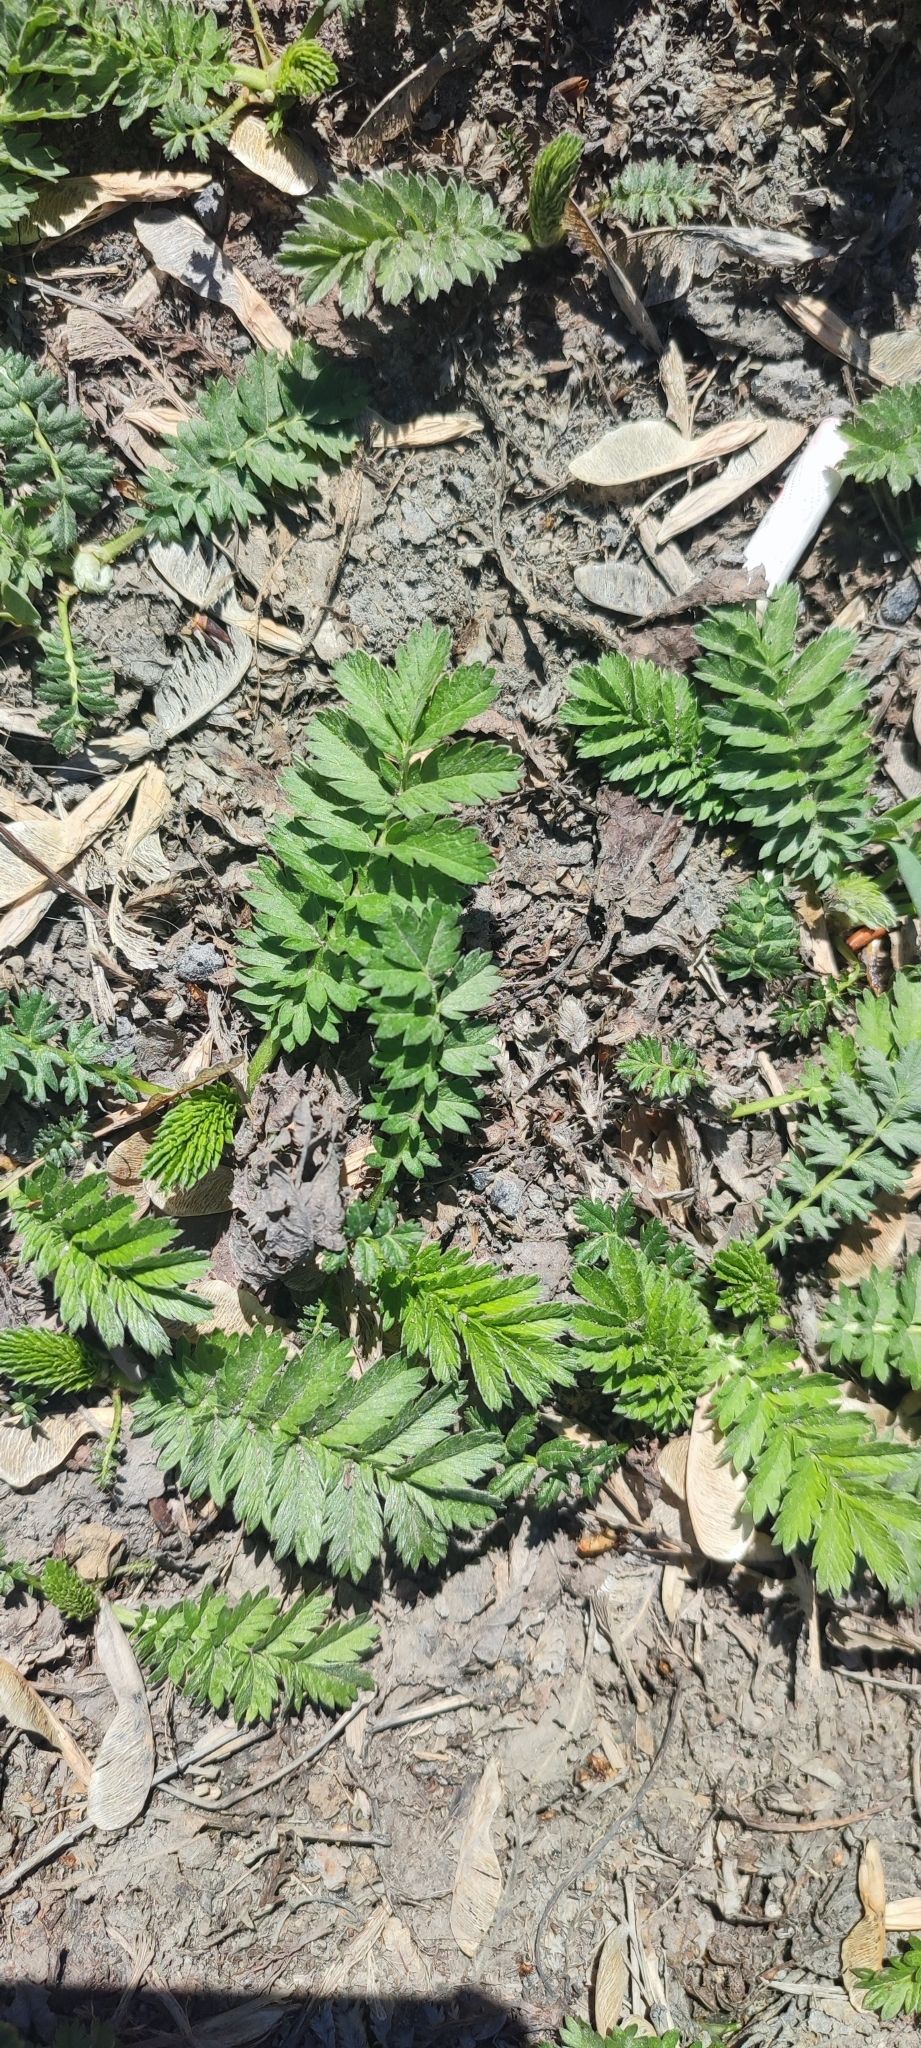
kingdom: Plantae
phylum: Tracheophyta
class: Magnoliopsida
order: Rosales
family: Rosaceae
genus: Argentina
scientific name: Argentina anserina
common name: Common silverweed
